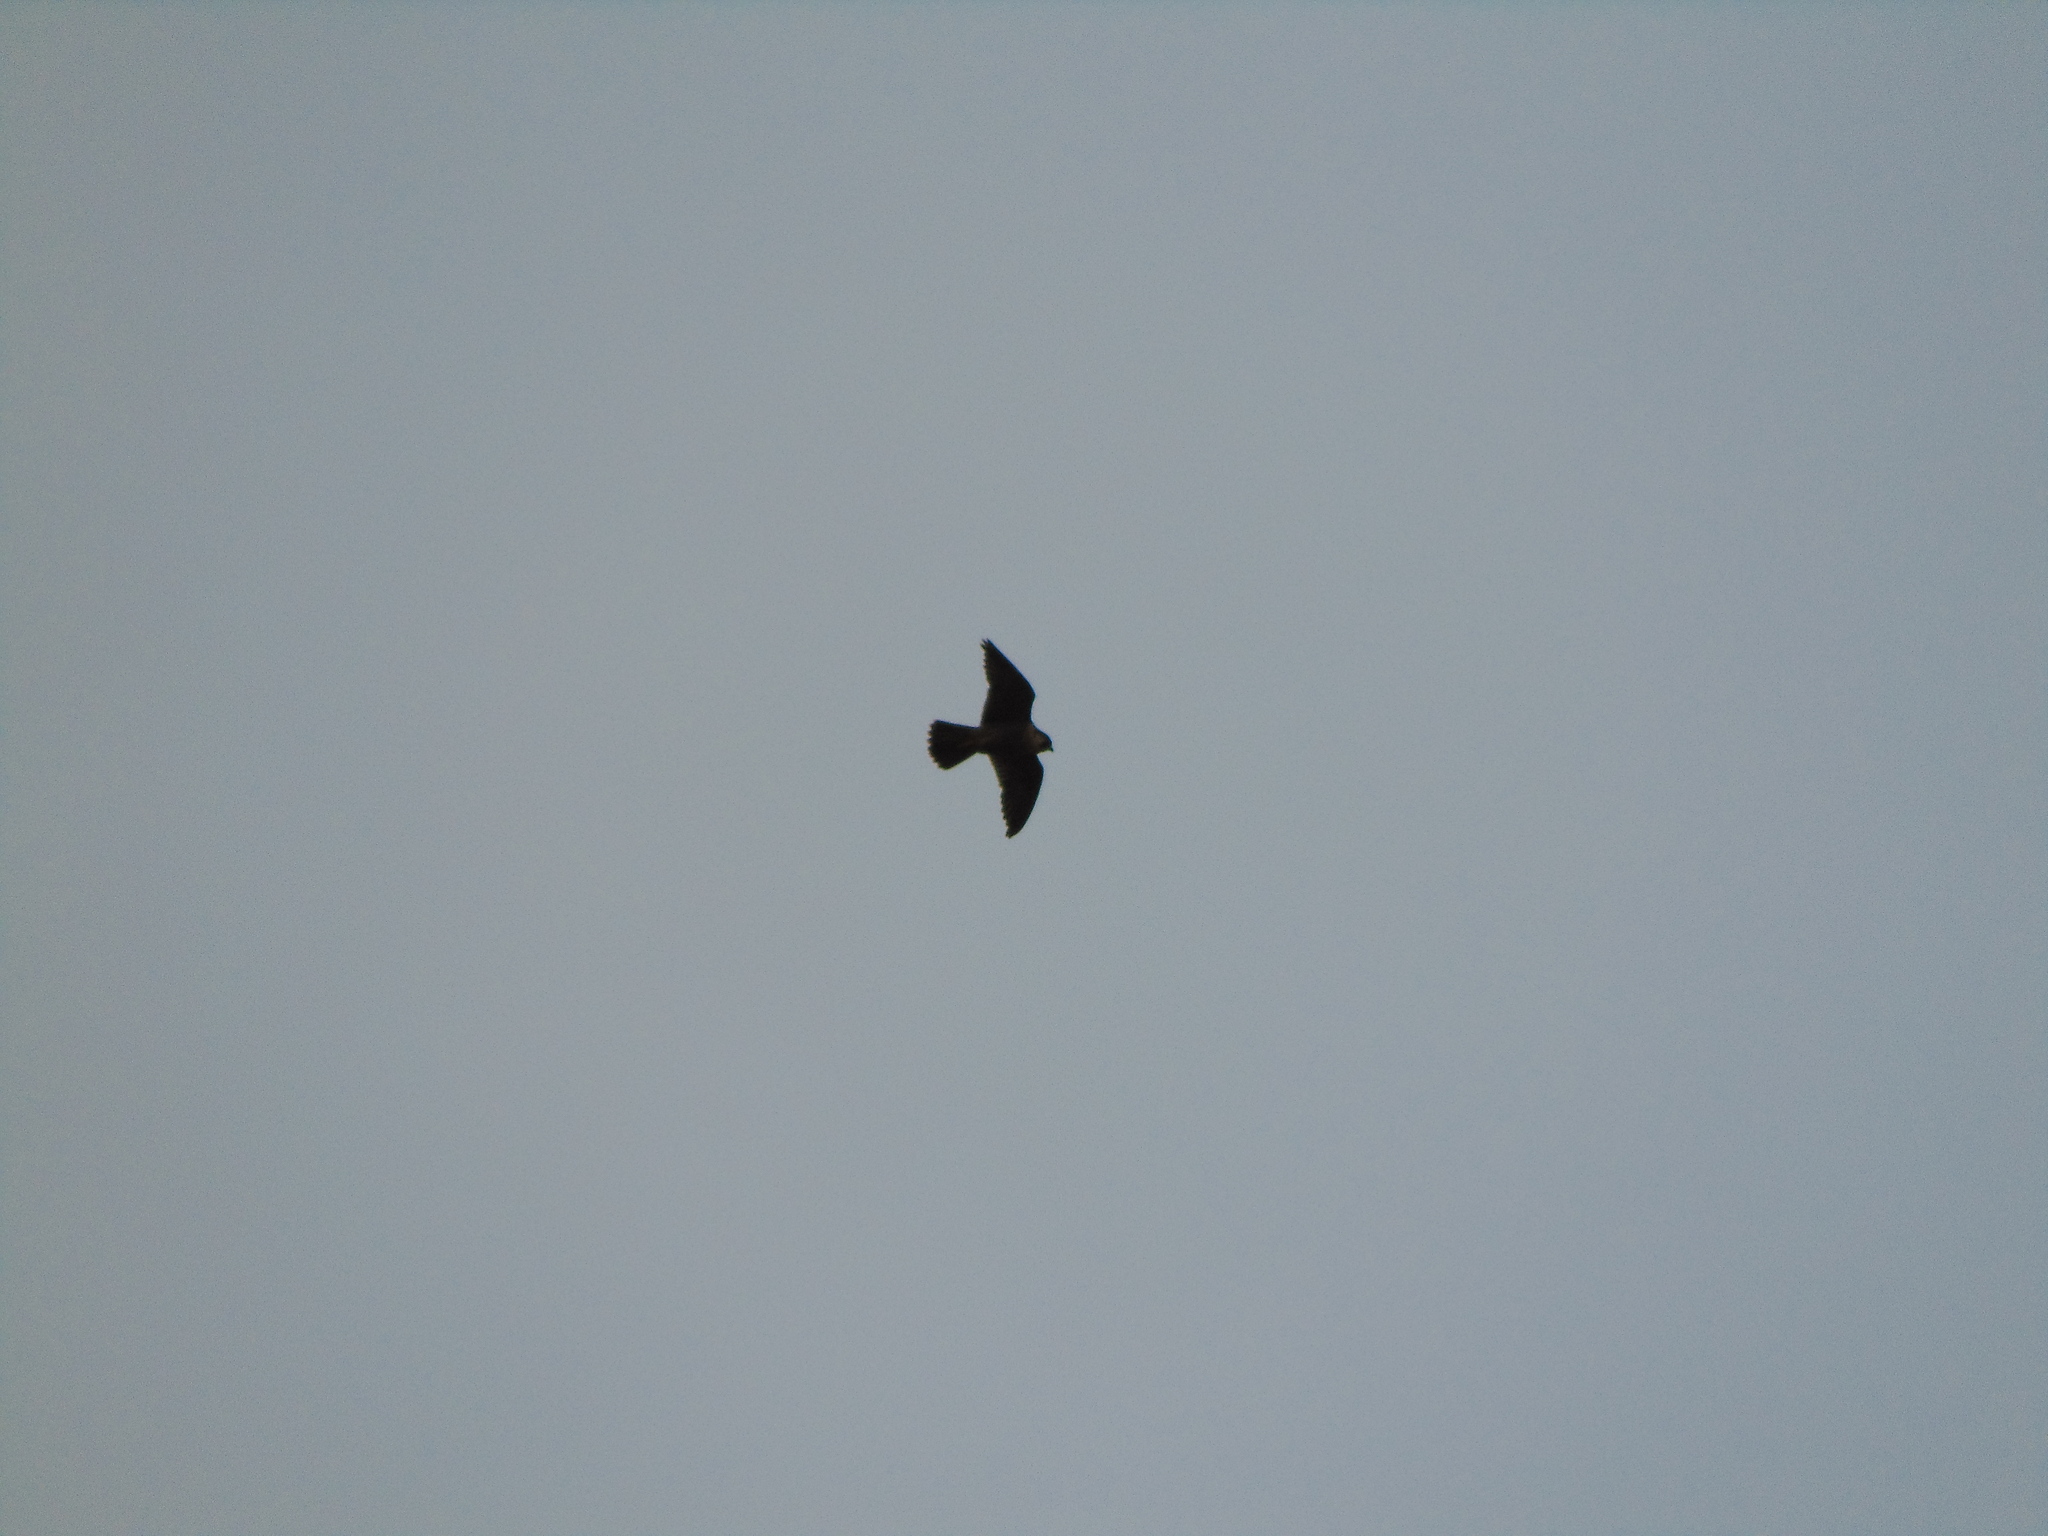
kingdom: Animalia
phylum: Chordata
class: Aves
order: Falconiformes
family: Falconidae
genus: Falco
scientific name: Falco peregrinus
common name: Peregrine falcon
